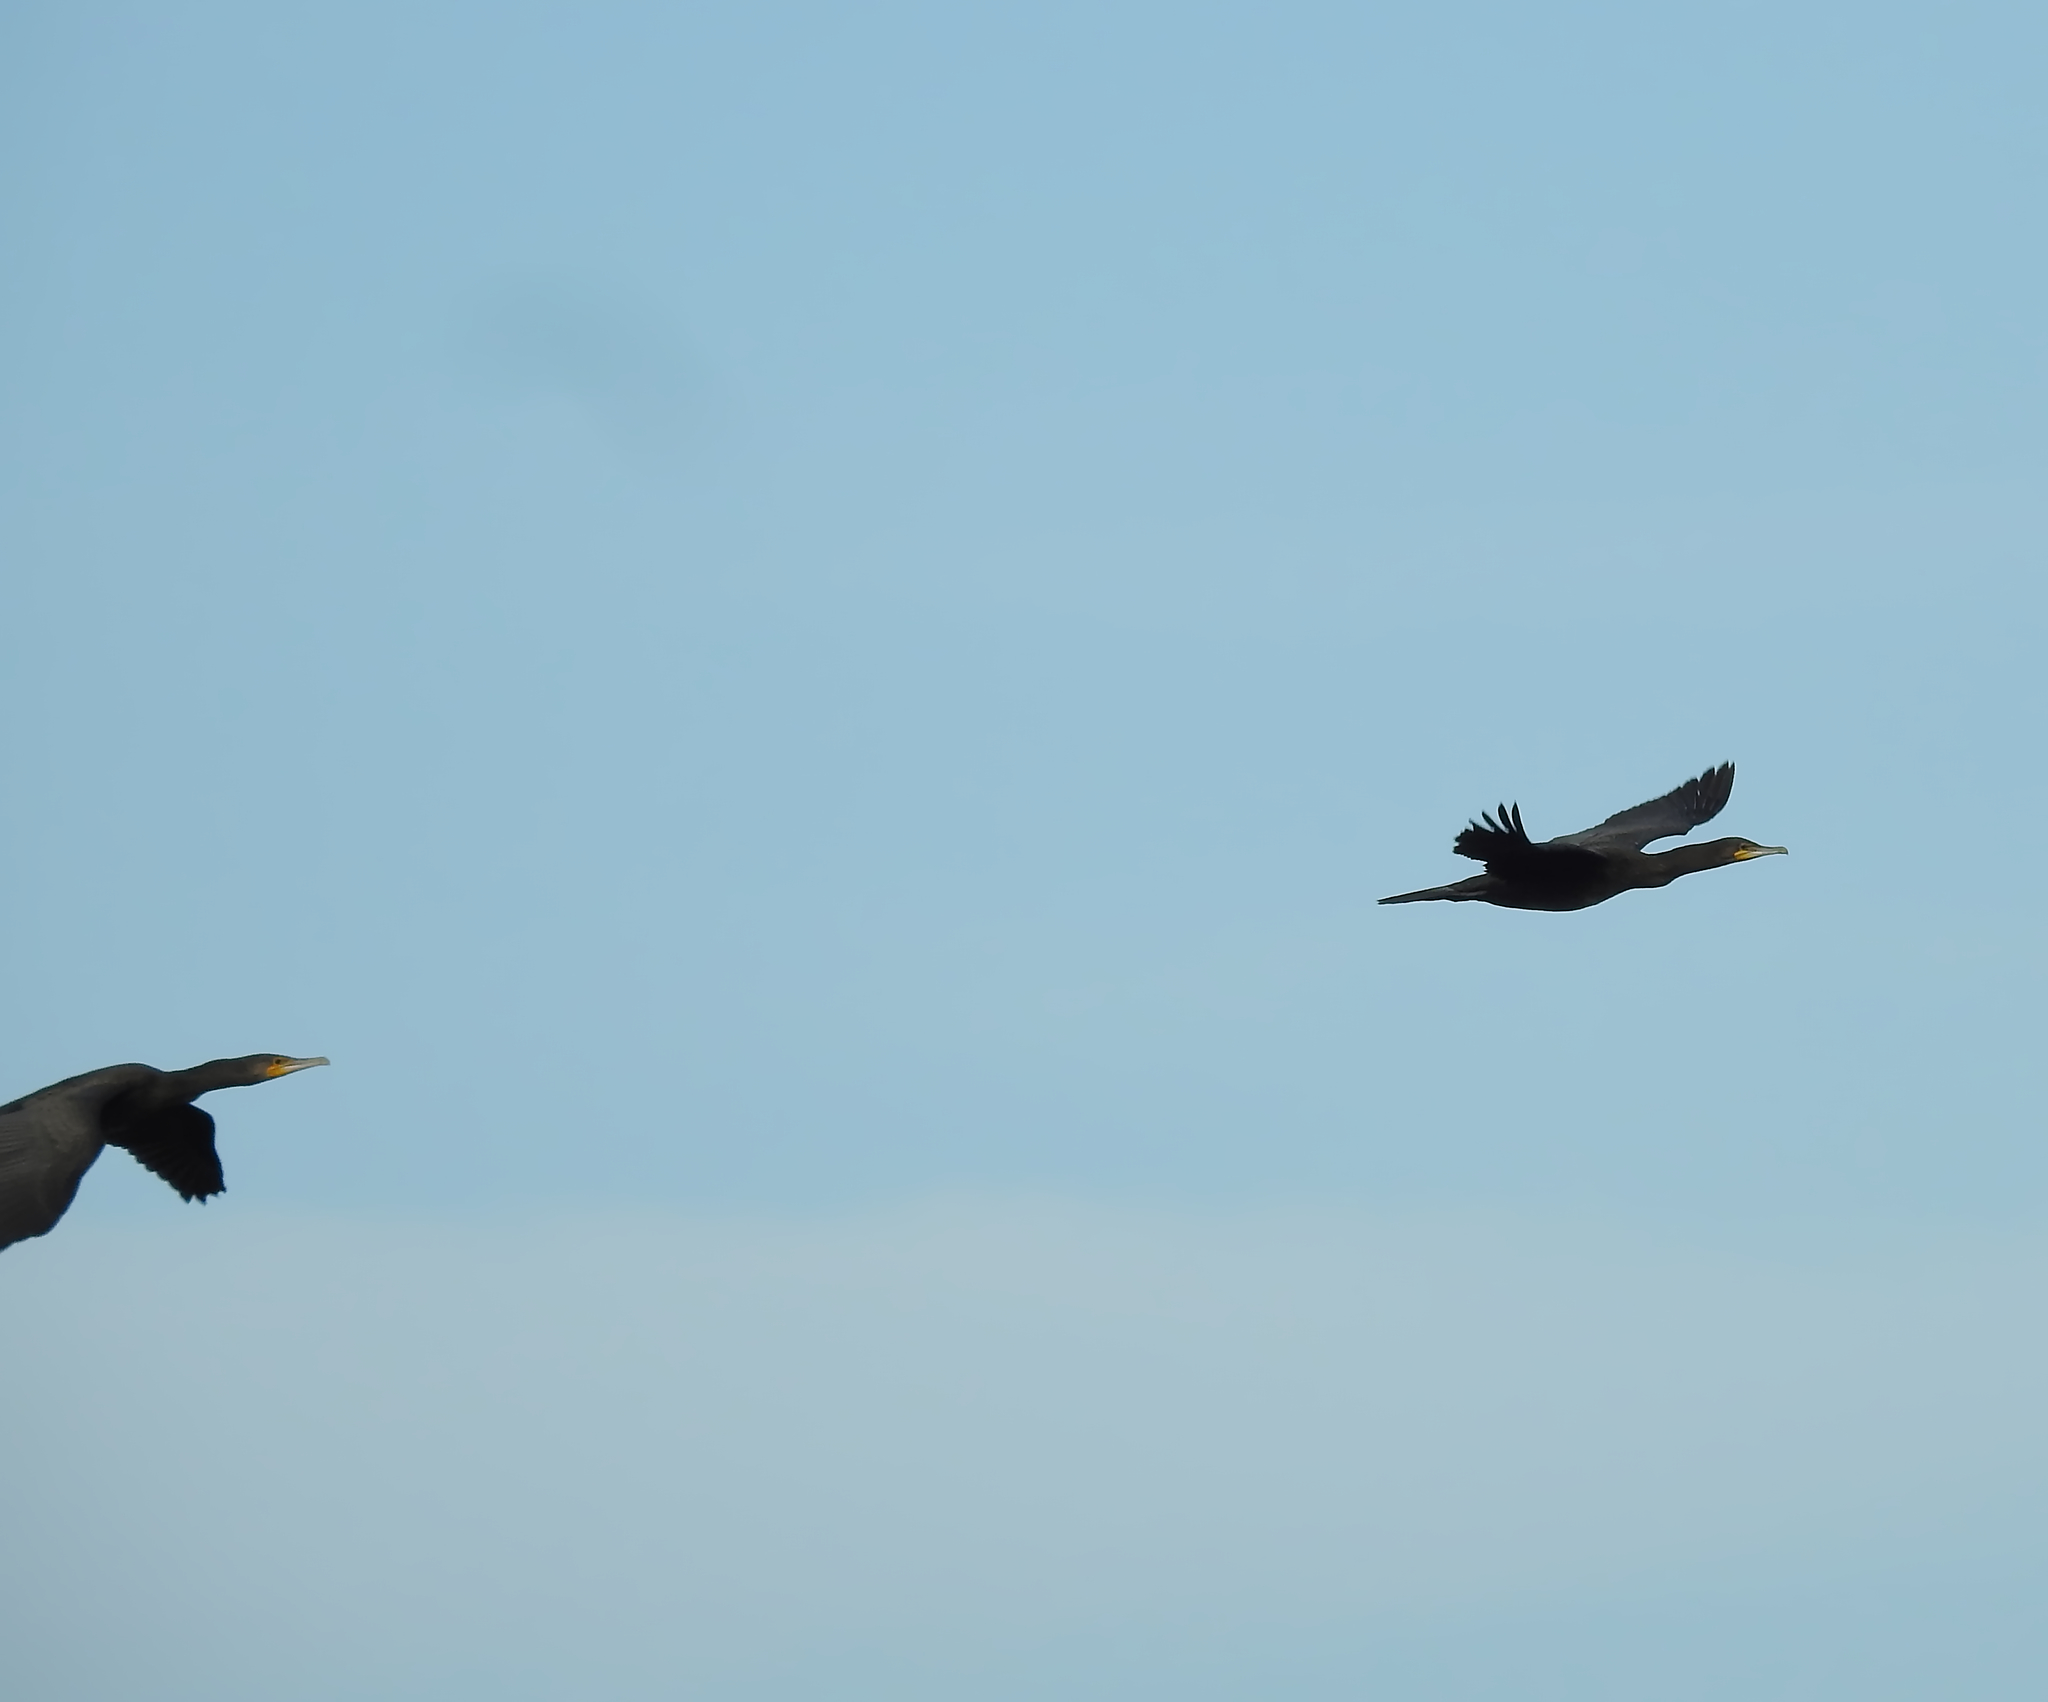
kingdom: Animalia
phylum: Chordata
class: Aves
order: Suliformes
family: Phalacrocoracidae
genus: Phalacrocorax
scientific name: Phalacrocorax carbo
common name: Great cormorant
